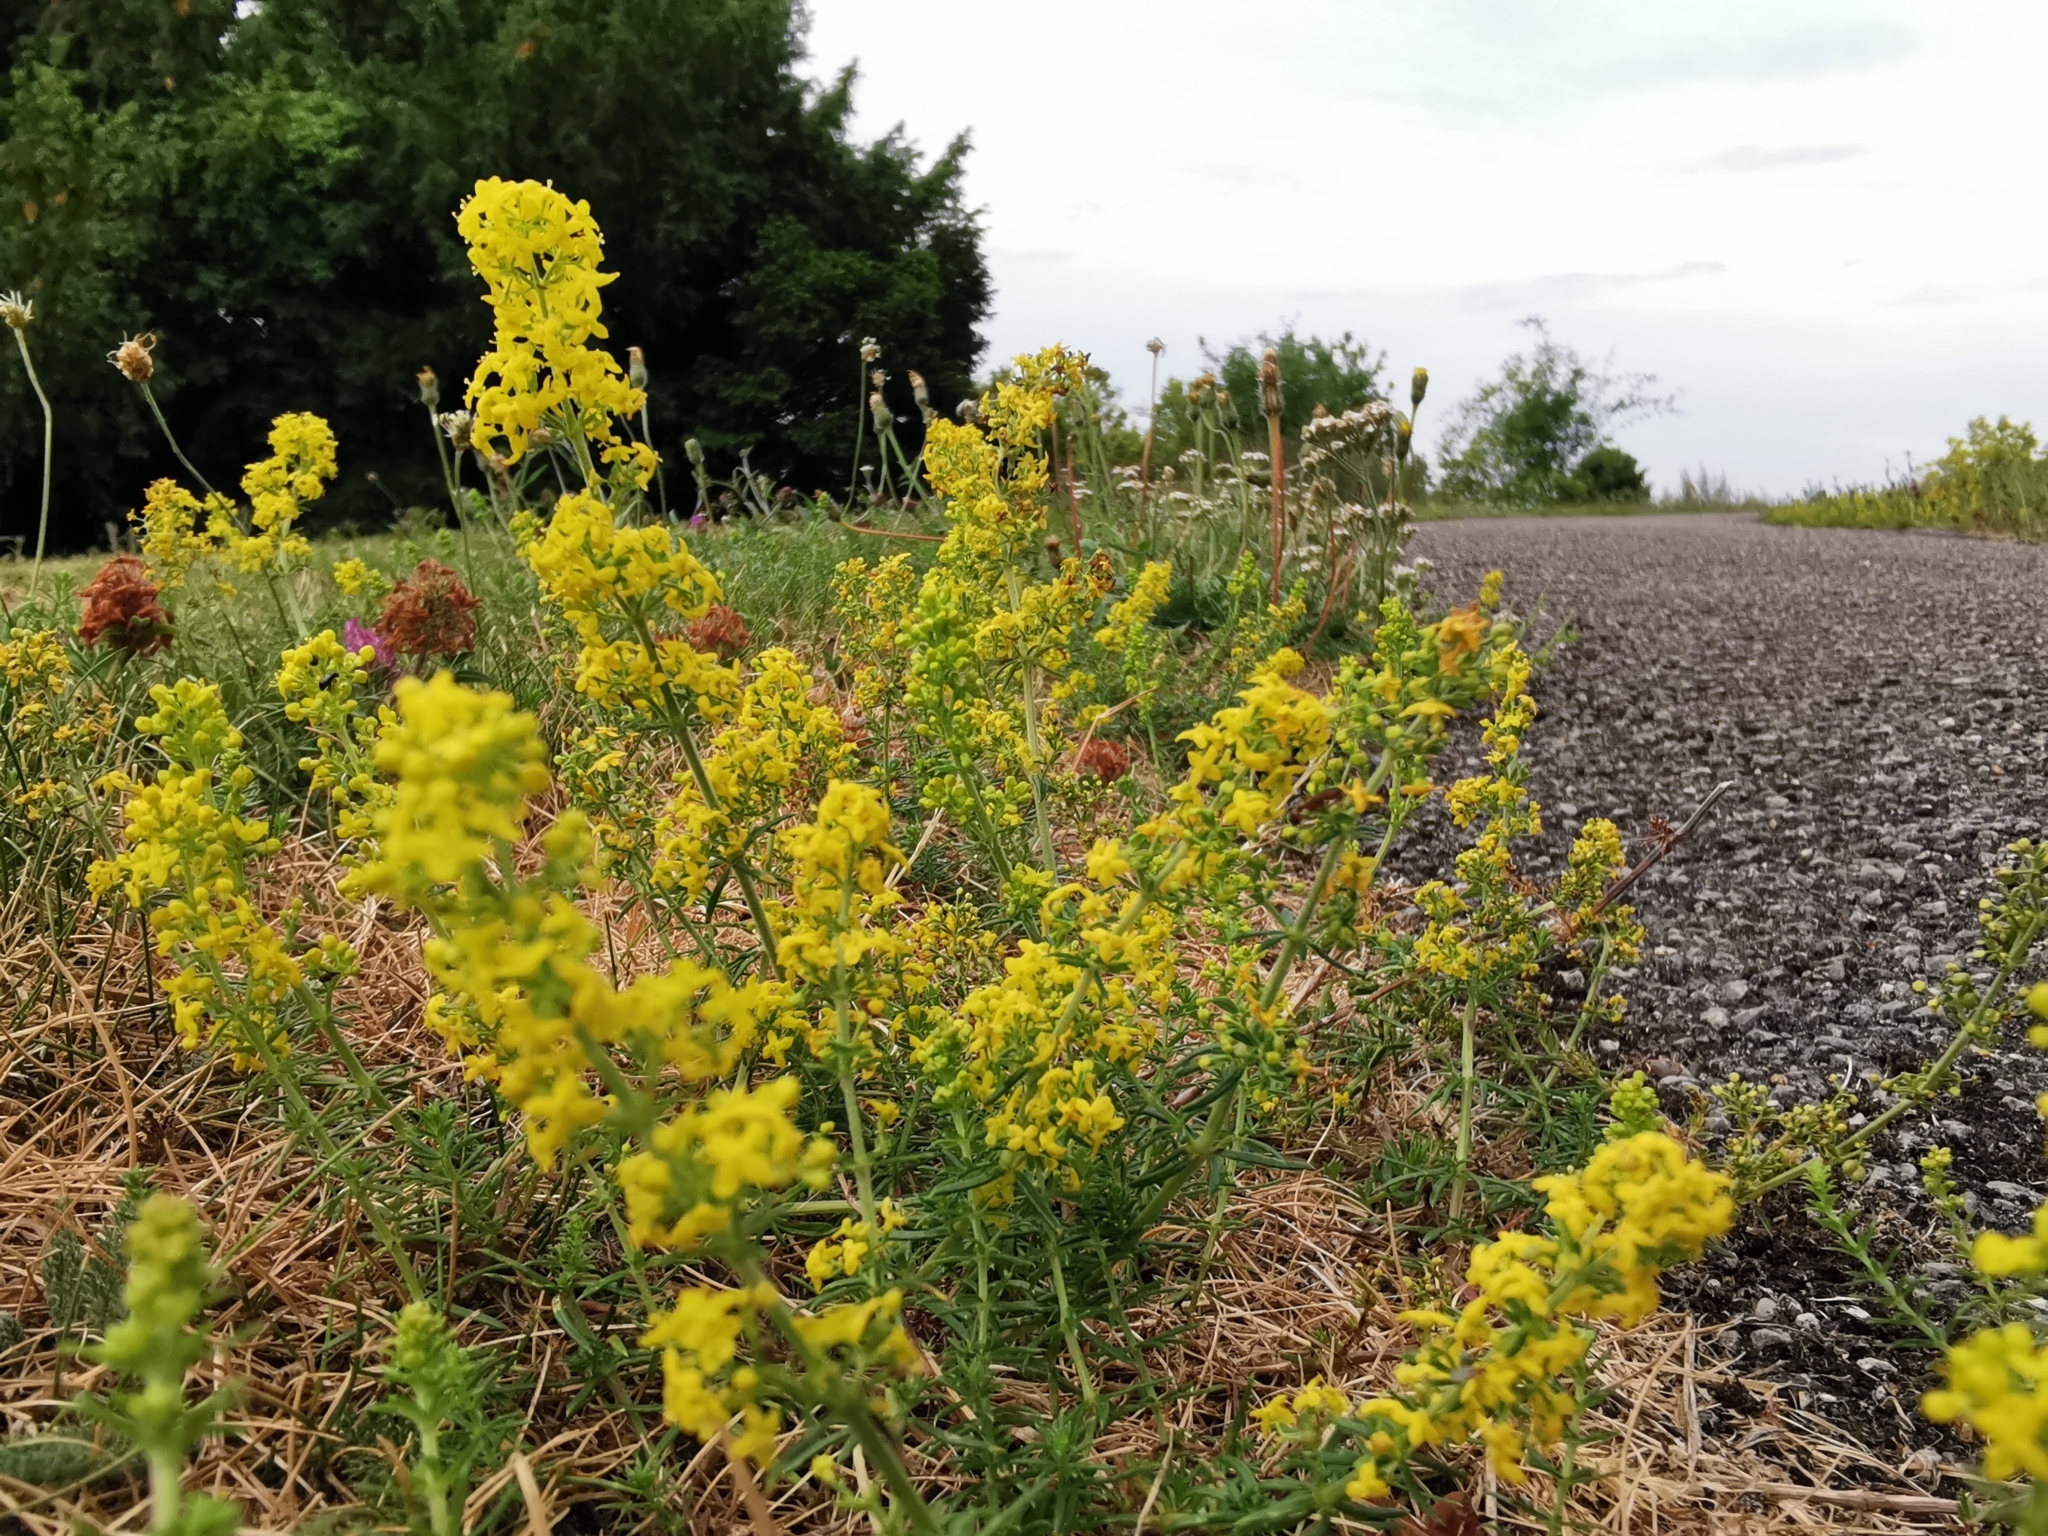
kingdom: Plantae
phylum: Tracheophyta
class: Magnoliopsida
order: Gentianales
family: Rubiaceae
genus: Galium
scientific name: Galium verum
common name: Lady's bedstraw
